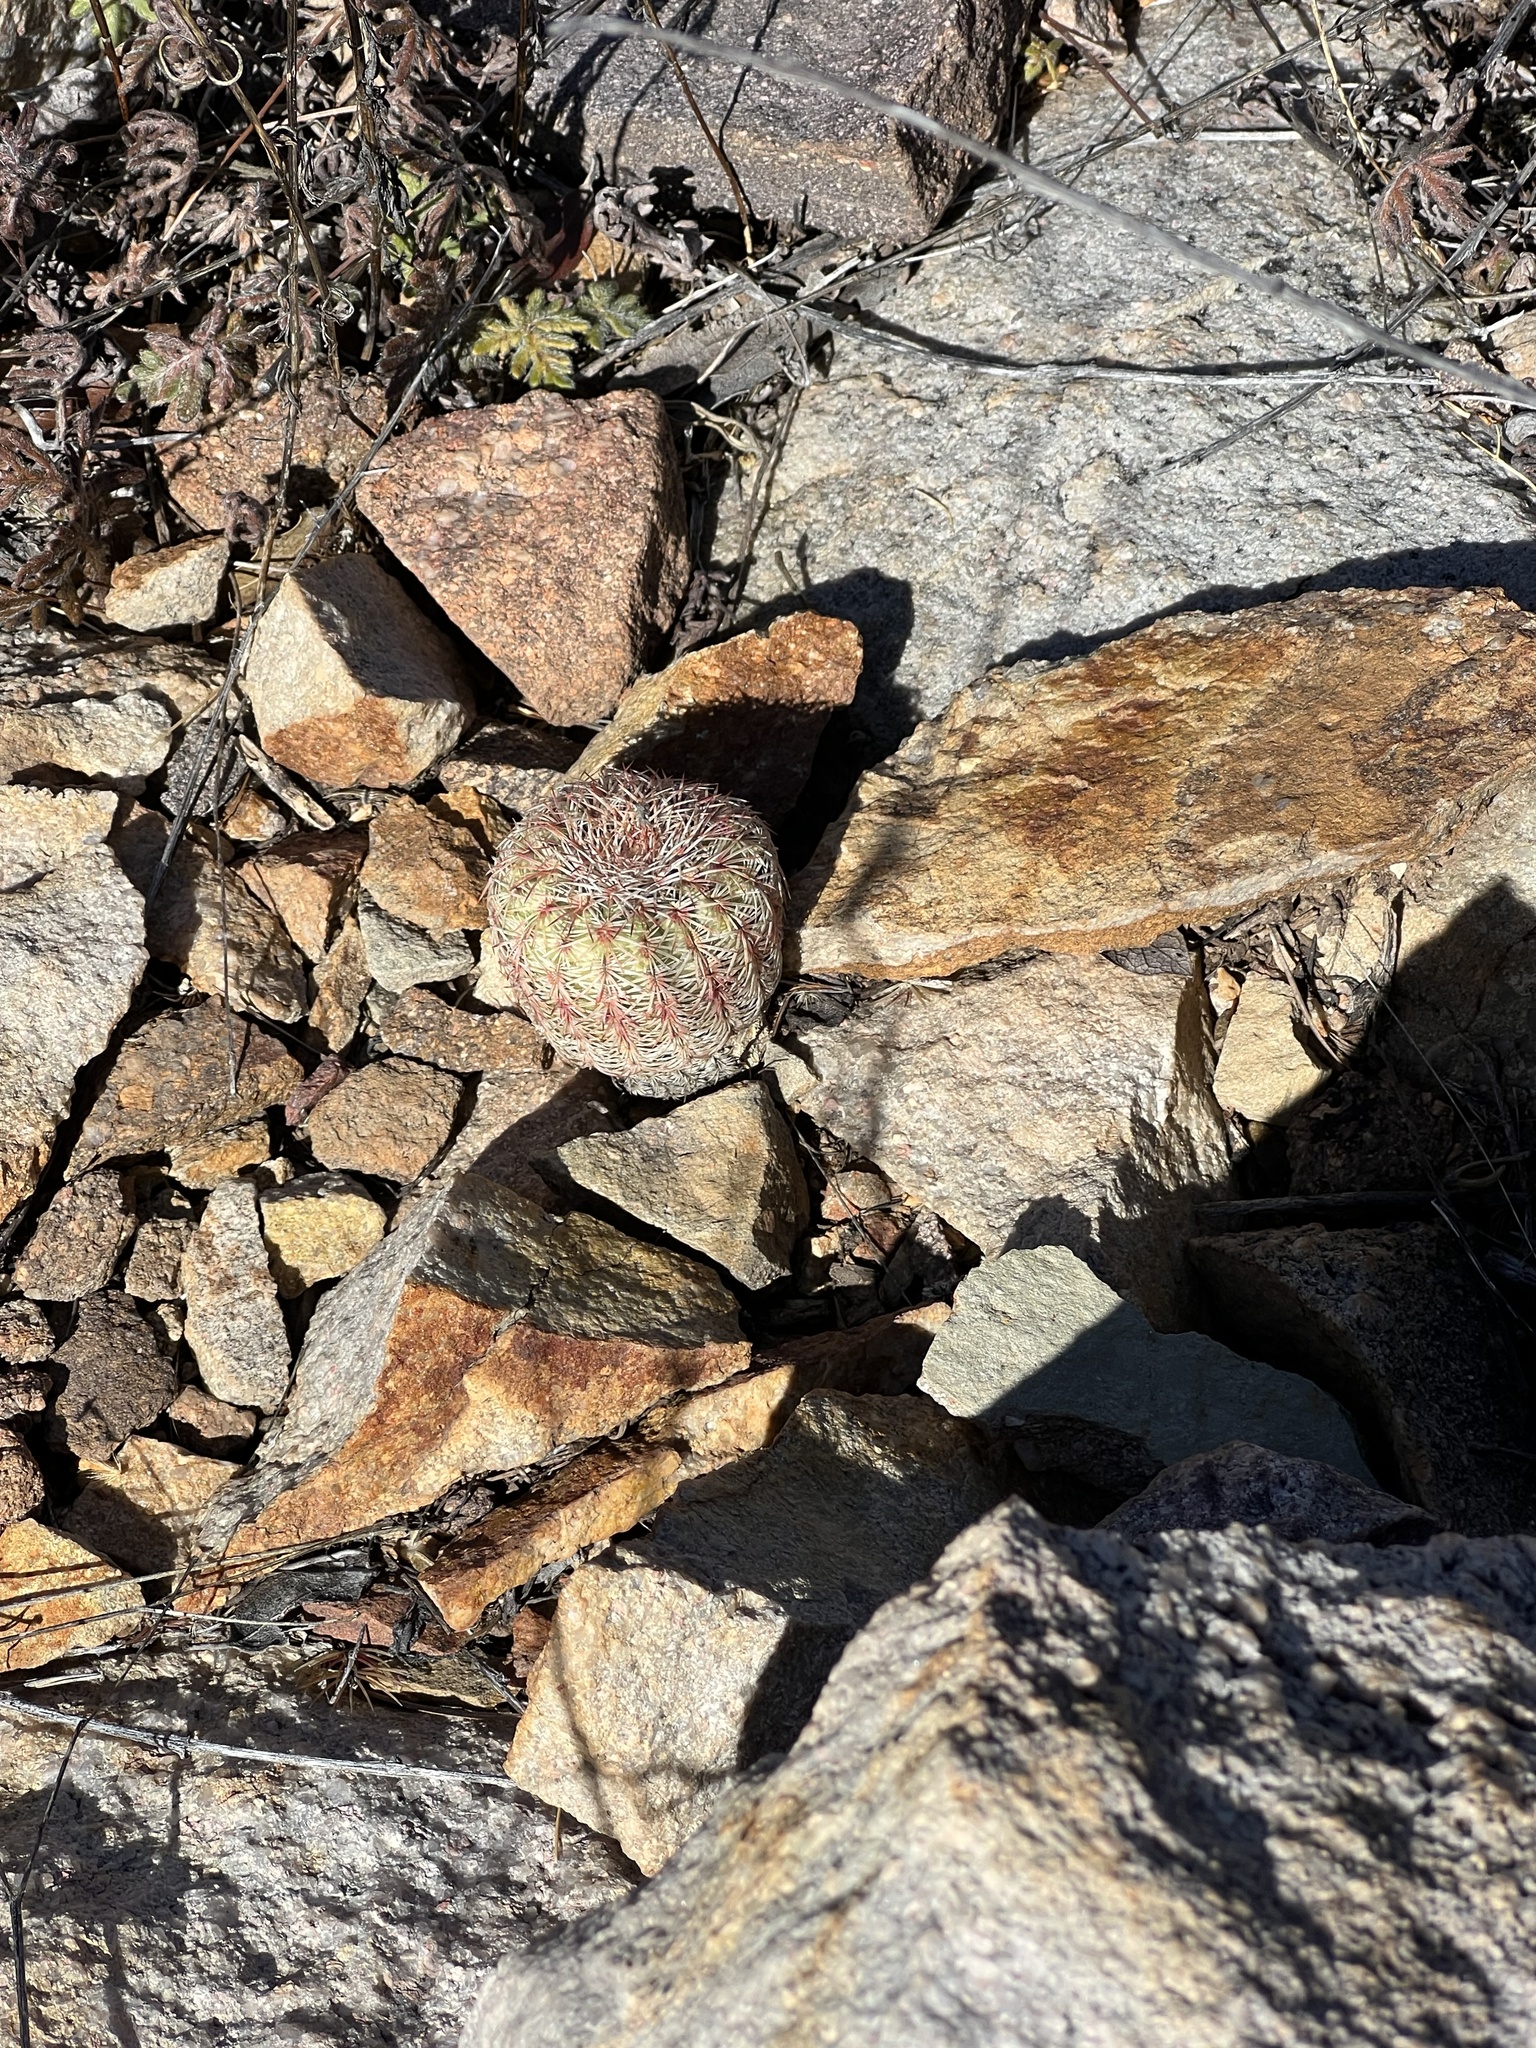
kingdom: Plantae
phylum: Tracheophyta
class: Magnoliopsida
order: Caryophyllales
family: Cactaceae
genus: Echinocereus
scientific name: Echinocereus rigidissimus
